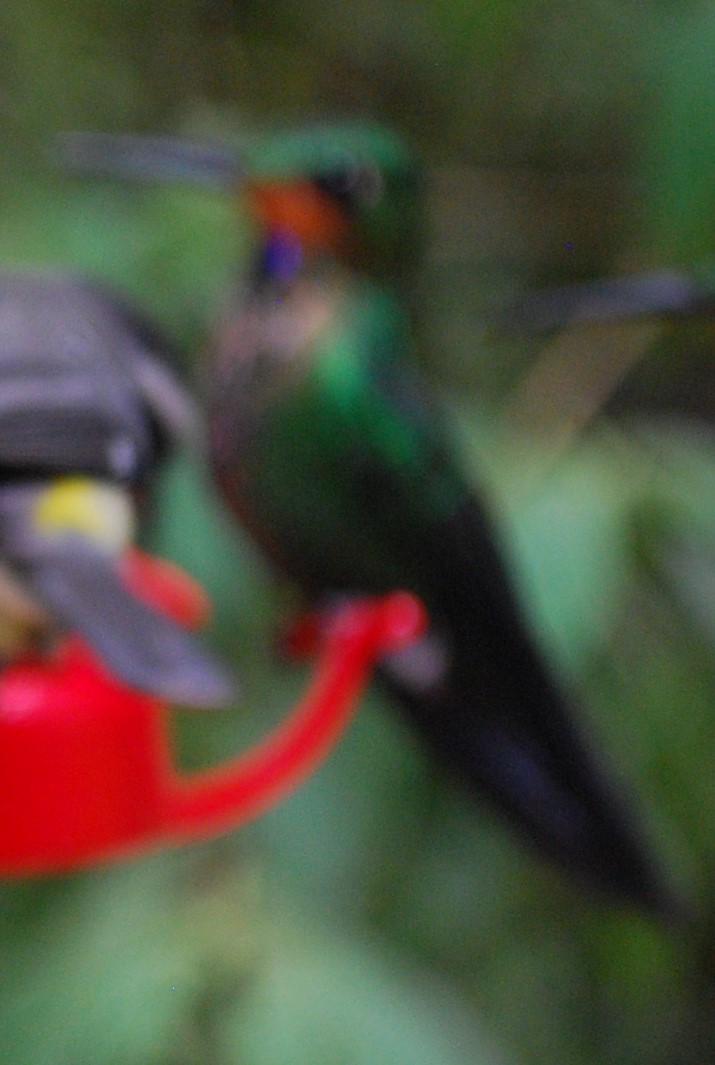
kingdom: Animalia
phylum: Chordata
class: Aves
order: Apodiformes
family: Trochilidae
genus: Heliodoxa
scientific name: Heliodoxa jacula
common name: Green-crowned brilliant
